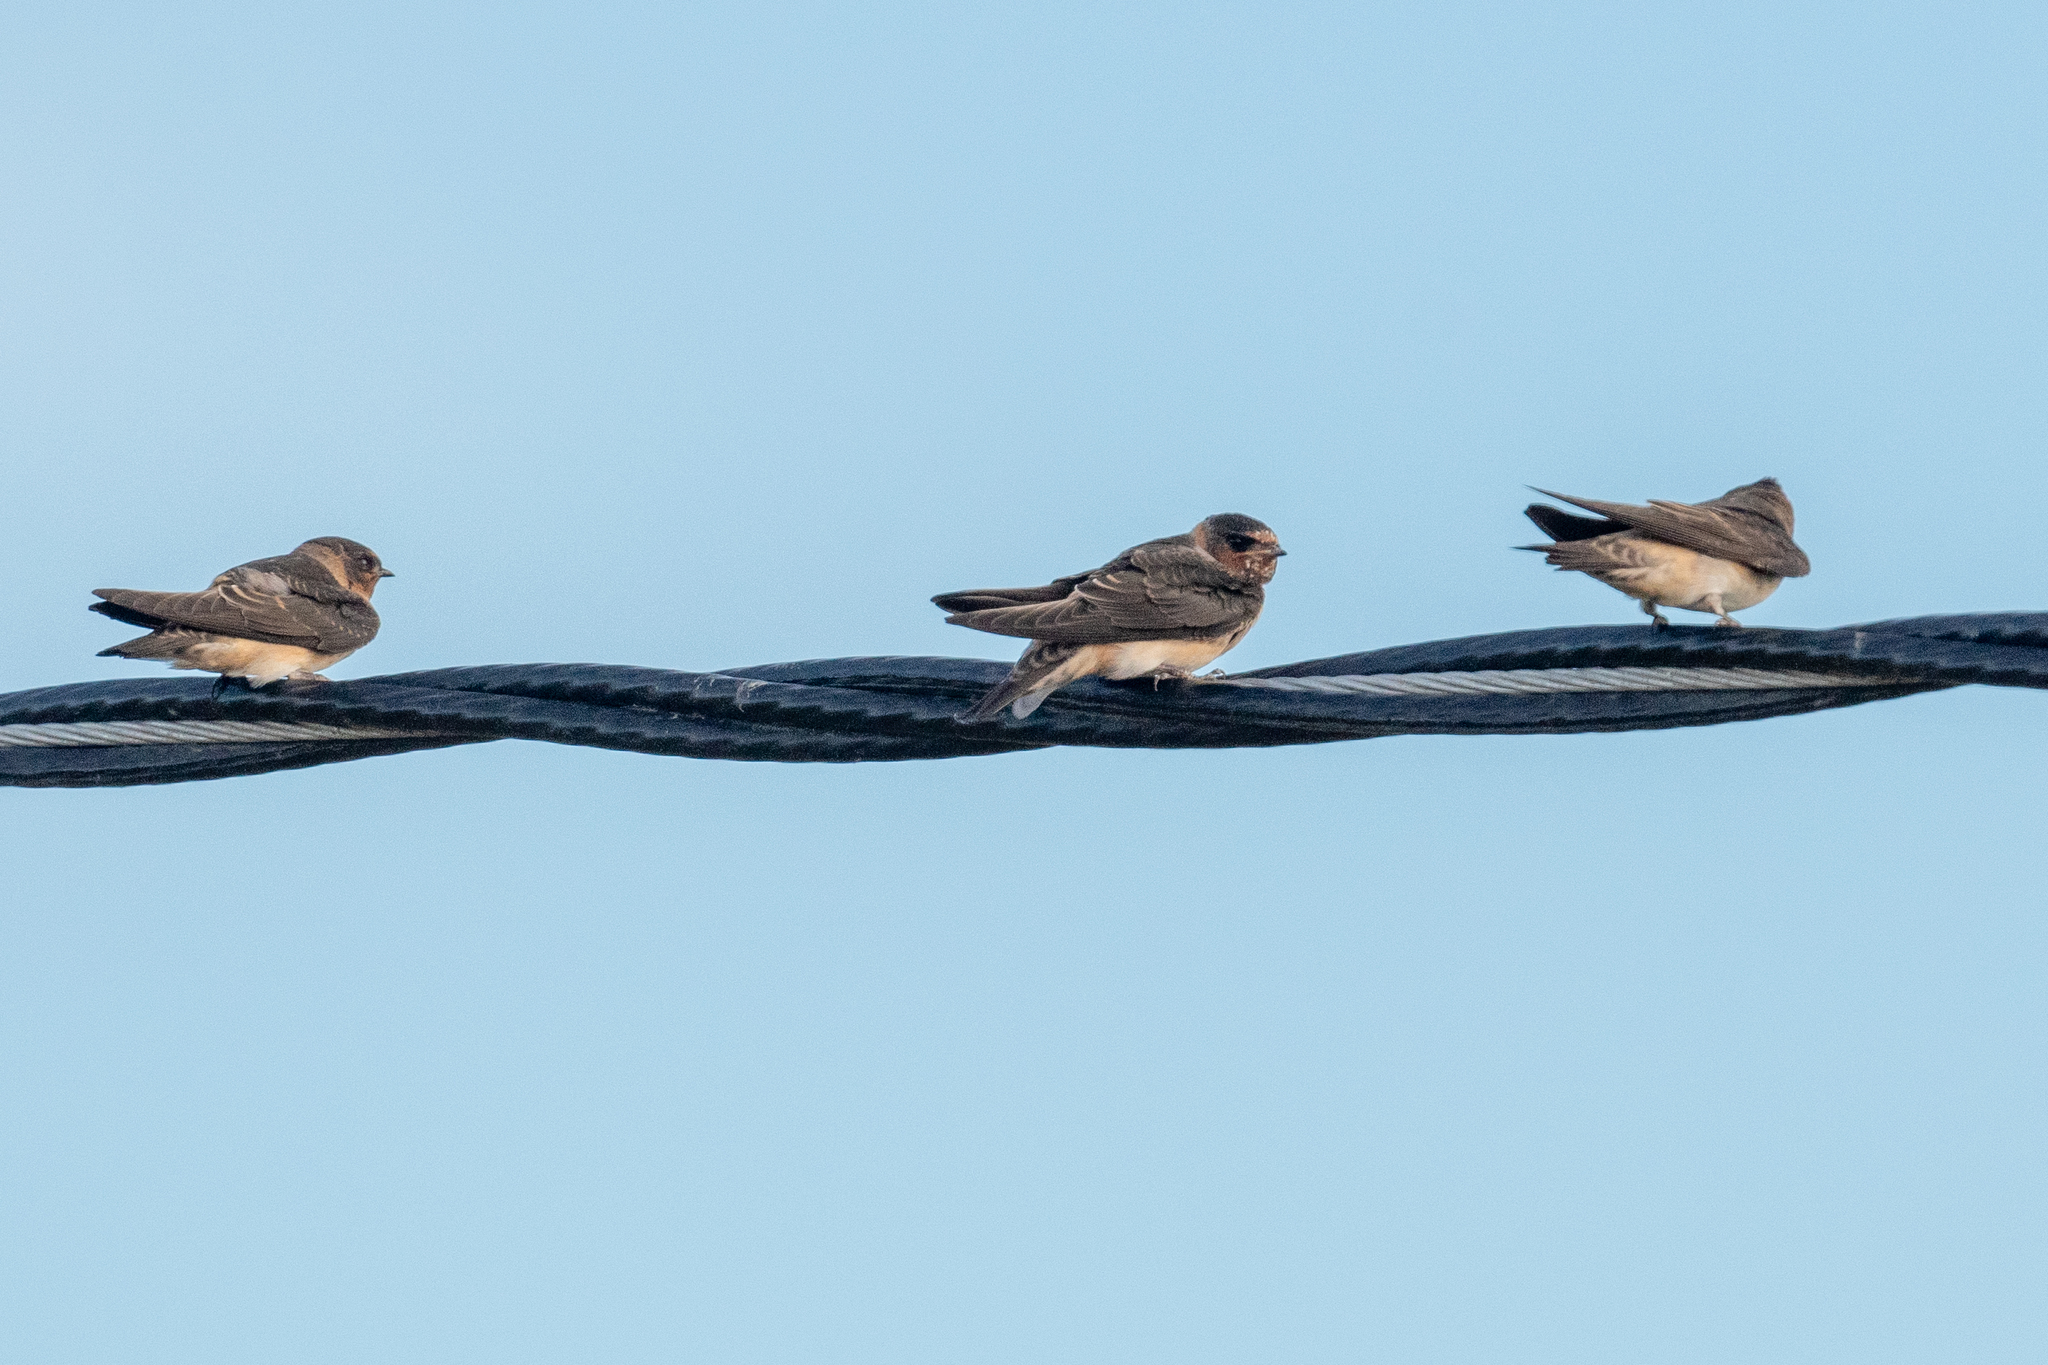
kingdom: Animalia
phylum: Chordata
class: Aves
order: Passeriformes
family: Hirundinidae
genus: Petrochelidon
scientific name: Petrochelidon pyrrhonota
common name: American cliff swallow
